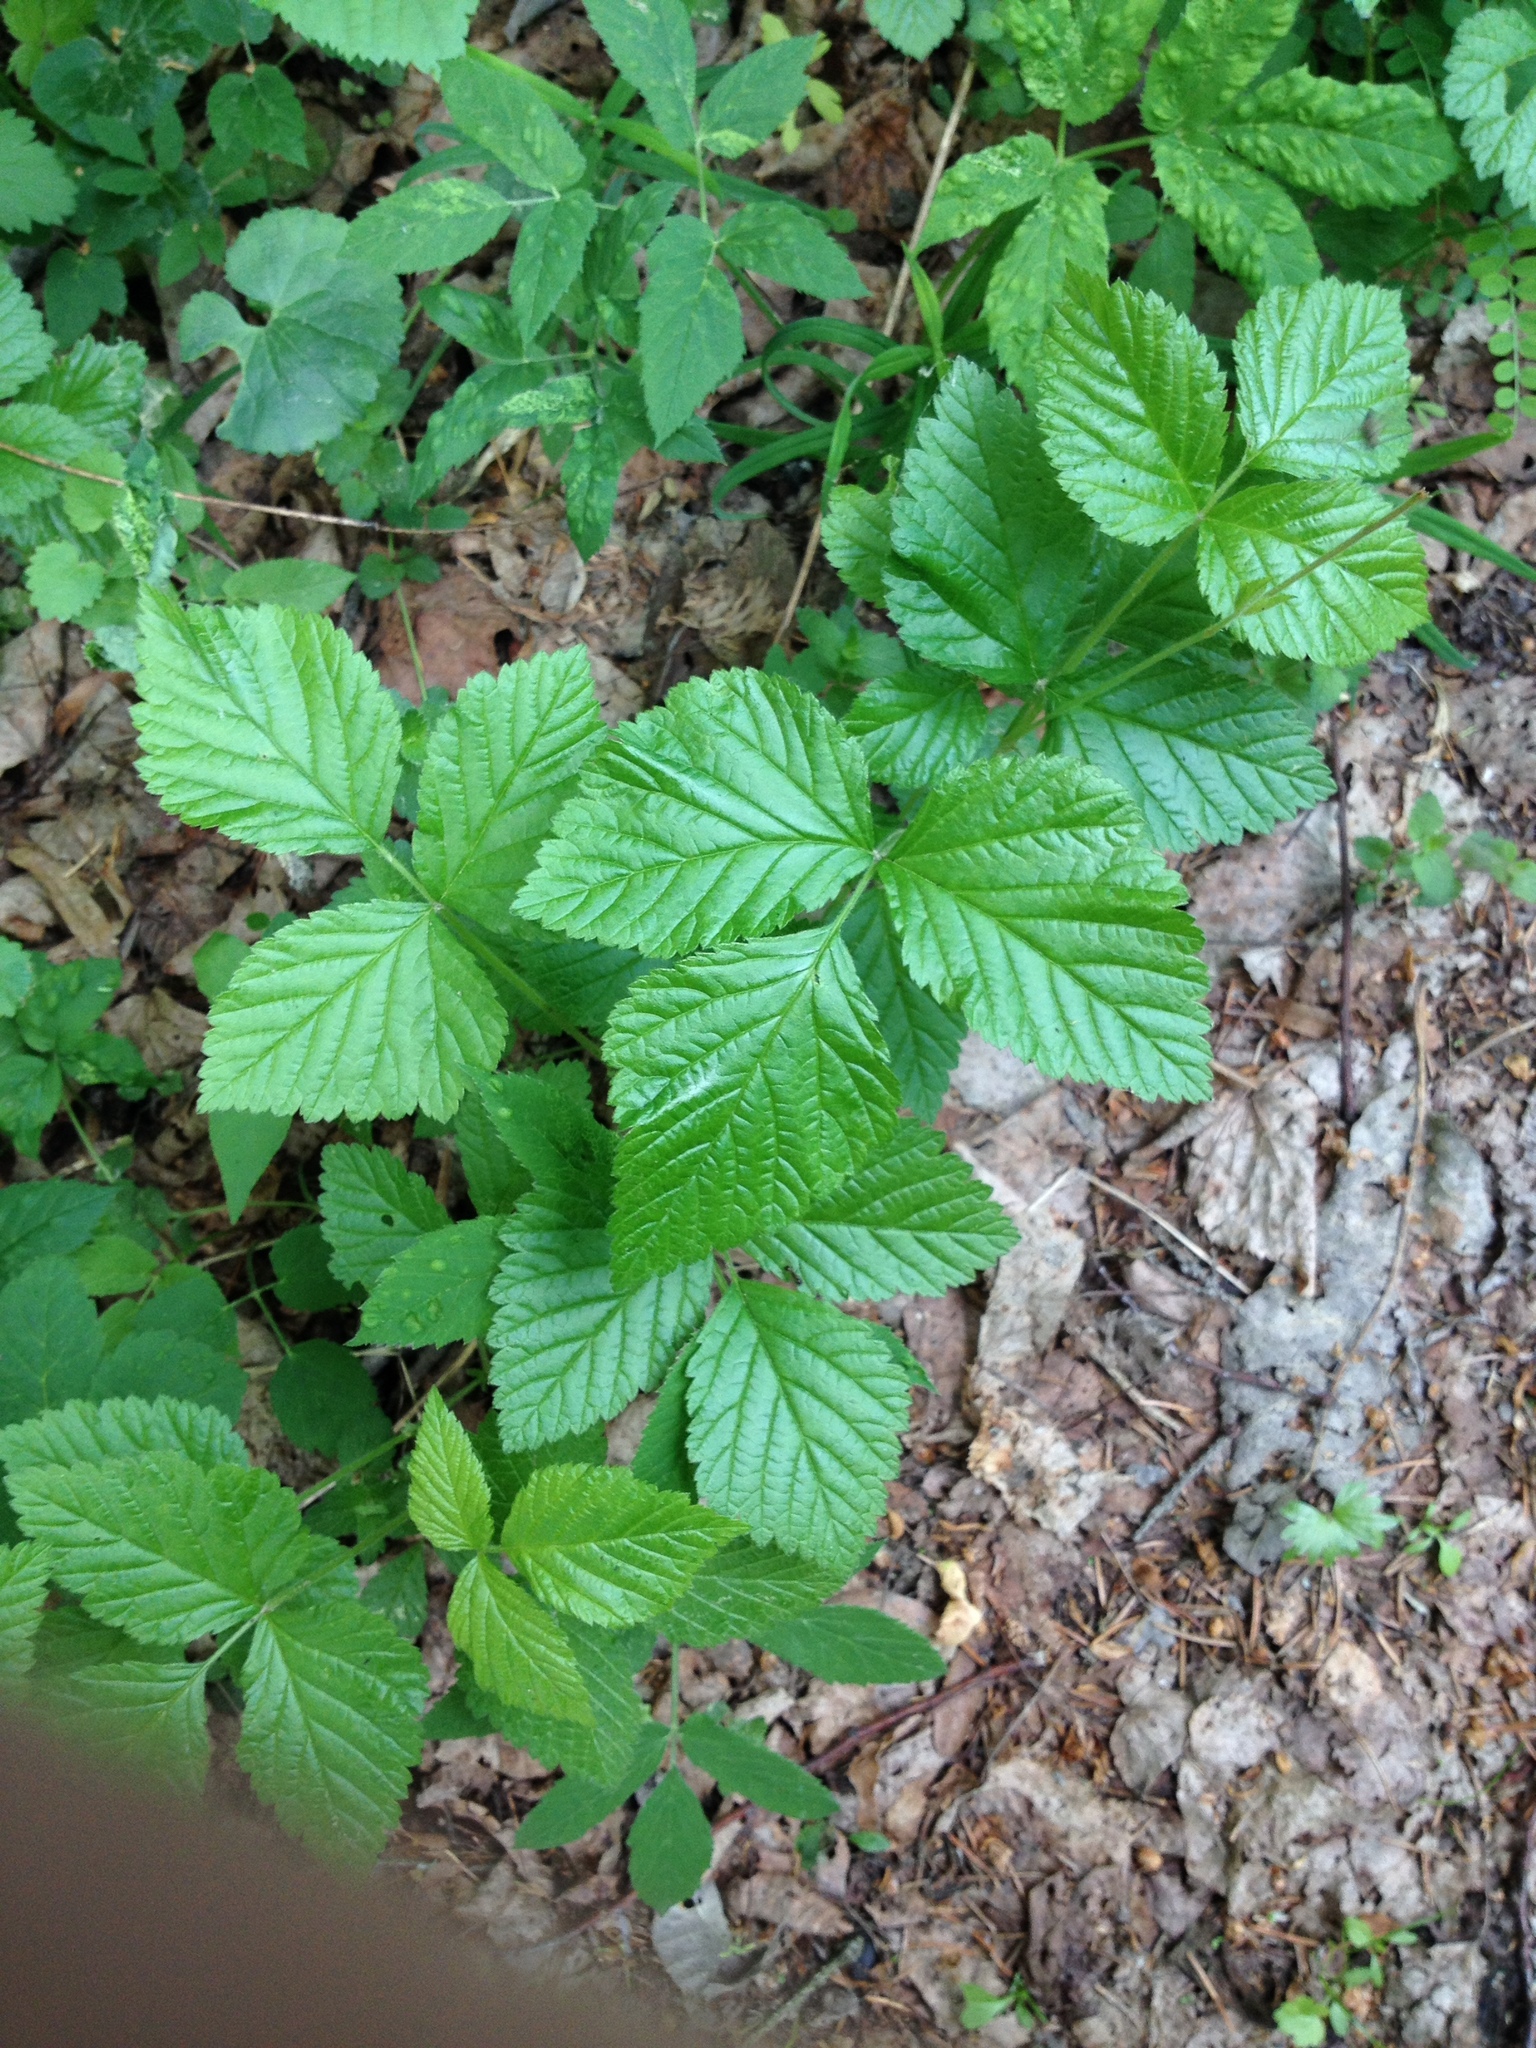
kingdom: Plantae
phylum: Tracheophyta
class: Magnoliopsida
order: Rosales
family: Rosaceae
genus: Rubus
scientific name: Rubus saxatilis
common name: Stone bramble
